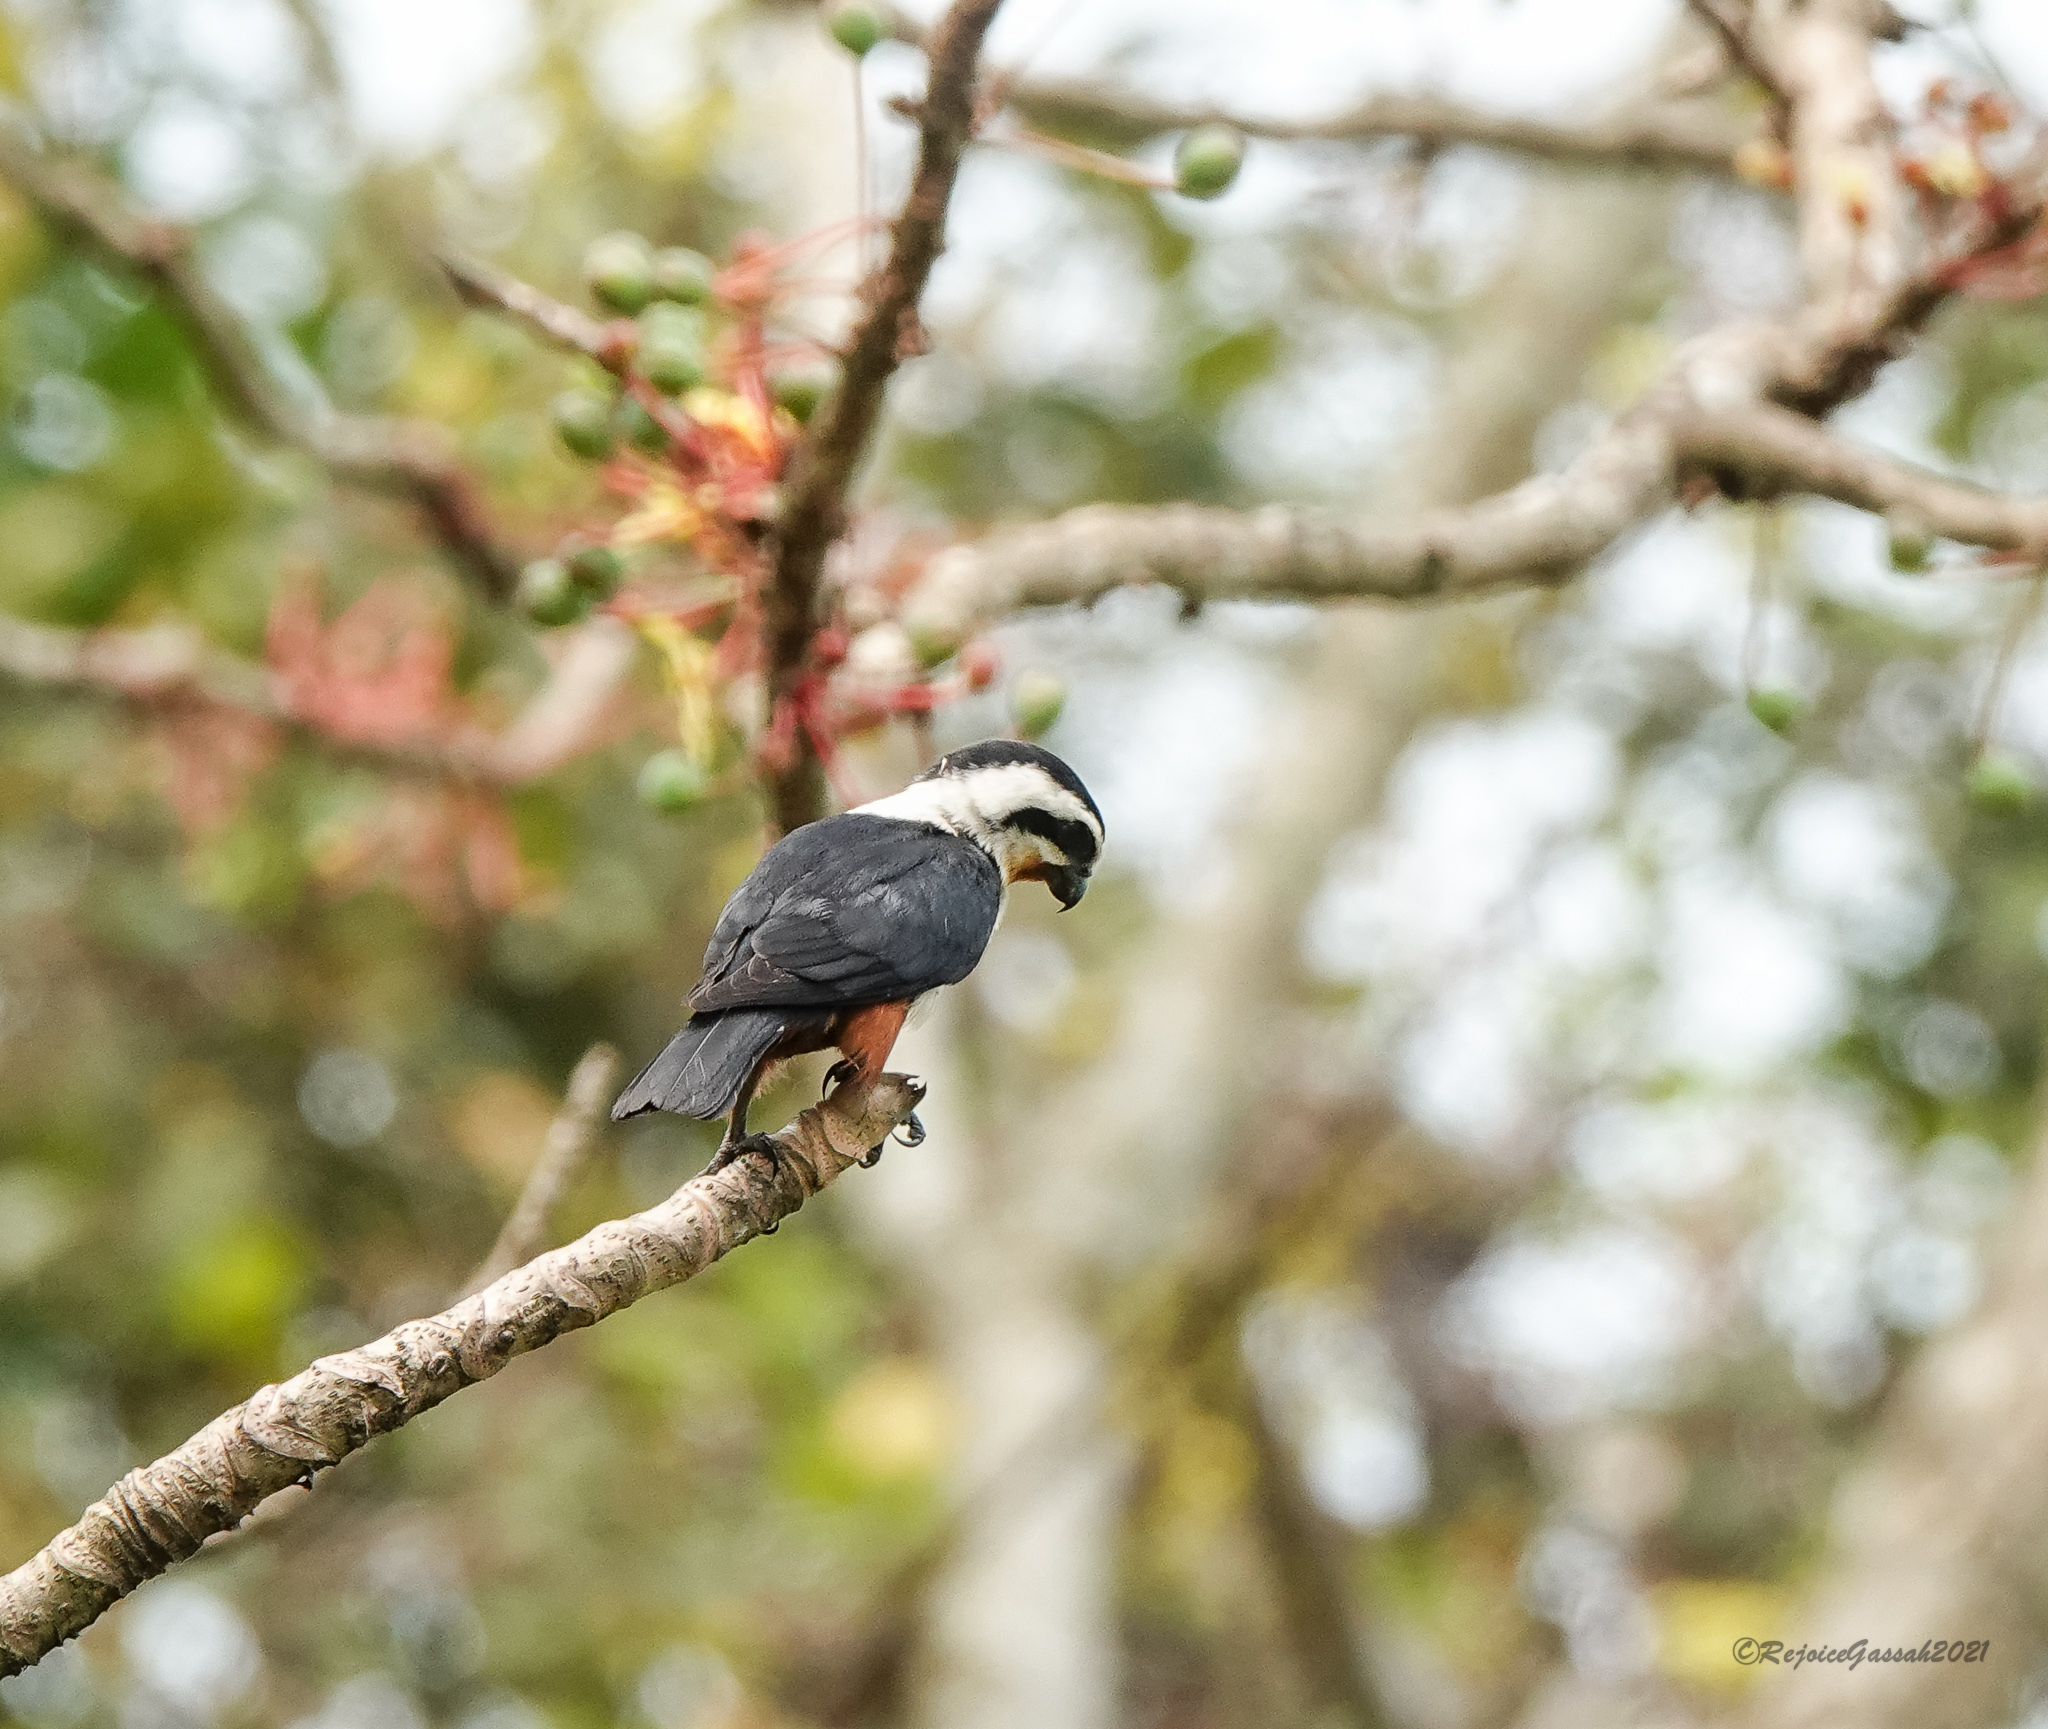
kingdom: Animalia
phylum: Chordata
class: Aves
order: Falconiformes
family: Falconidae
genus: Microhierax
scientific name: Microhierax caerulescens
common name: Collared falconet
